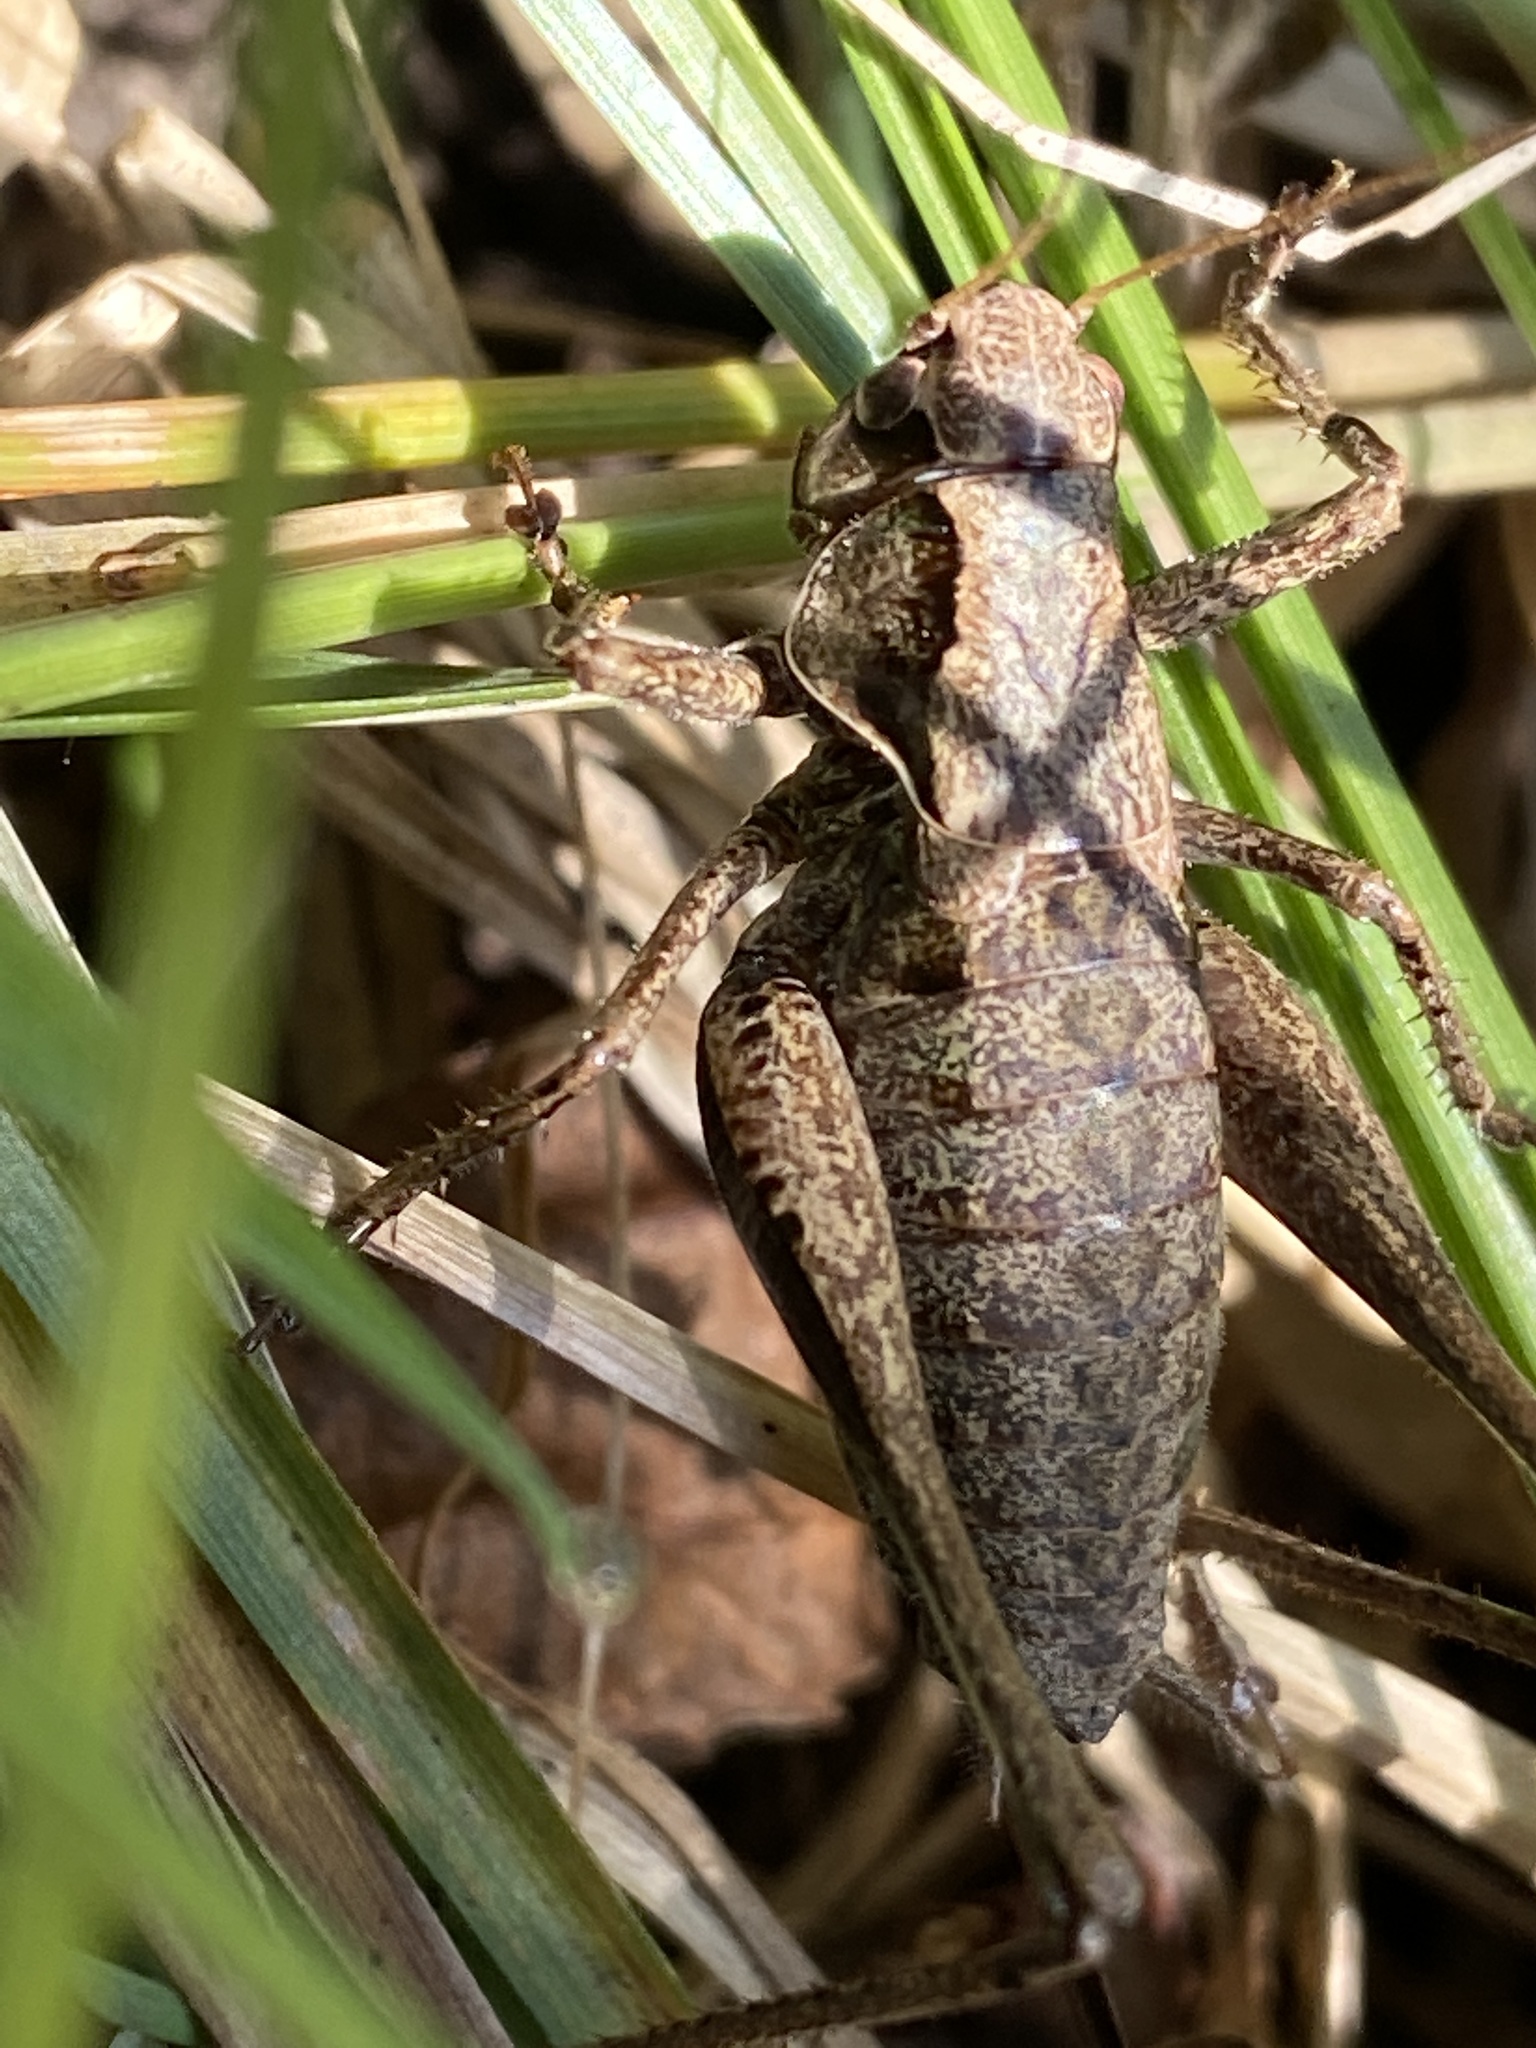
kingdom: Animalia
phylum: Arthropoda
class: Insecta
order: Orthoptera
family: Tettigoniidae
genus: Pholidoptera
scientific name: Pholidoptera griseoaptera
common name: Dark bush-cricket
